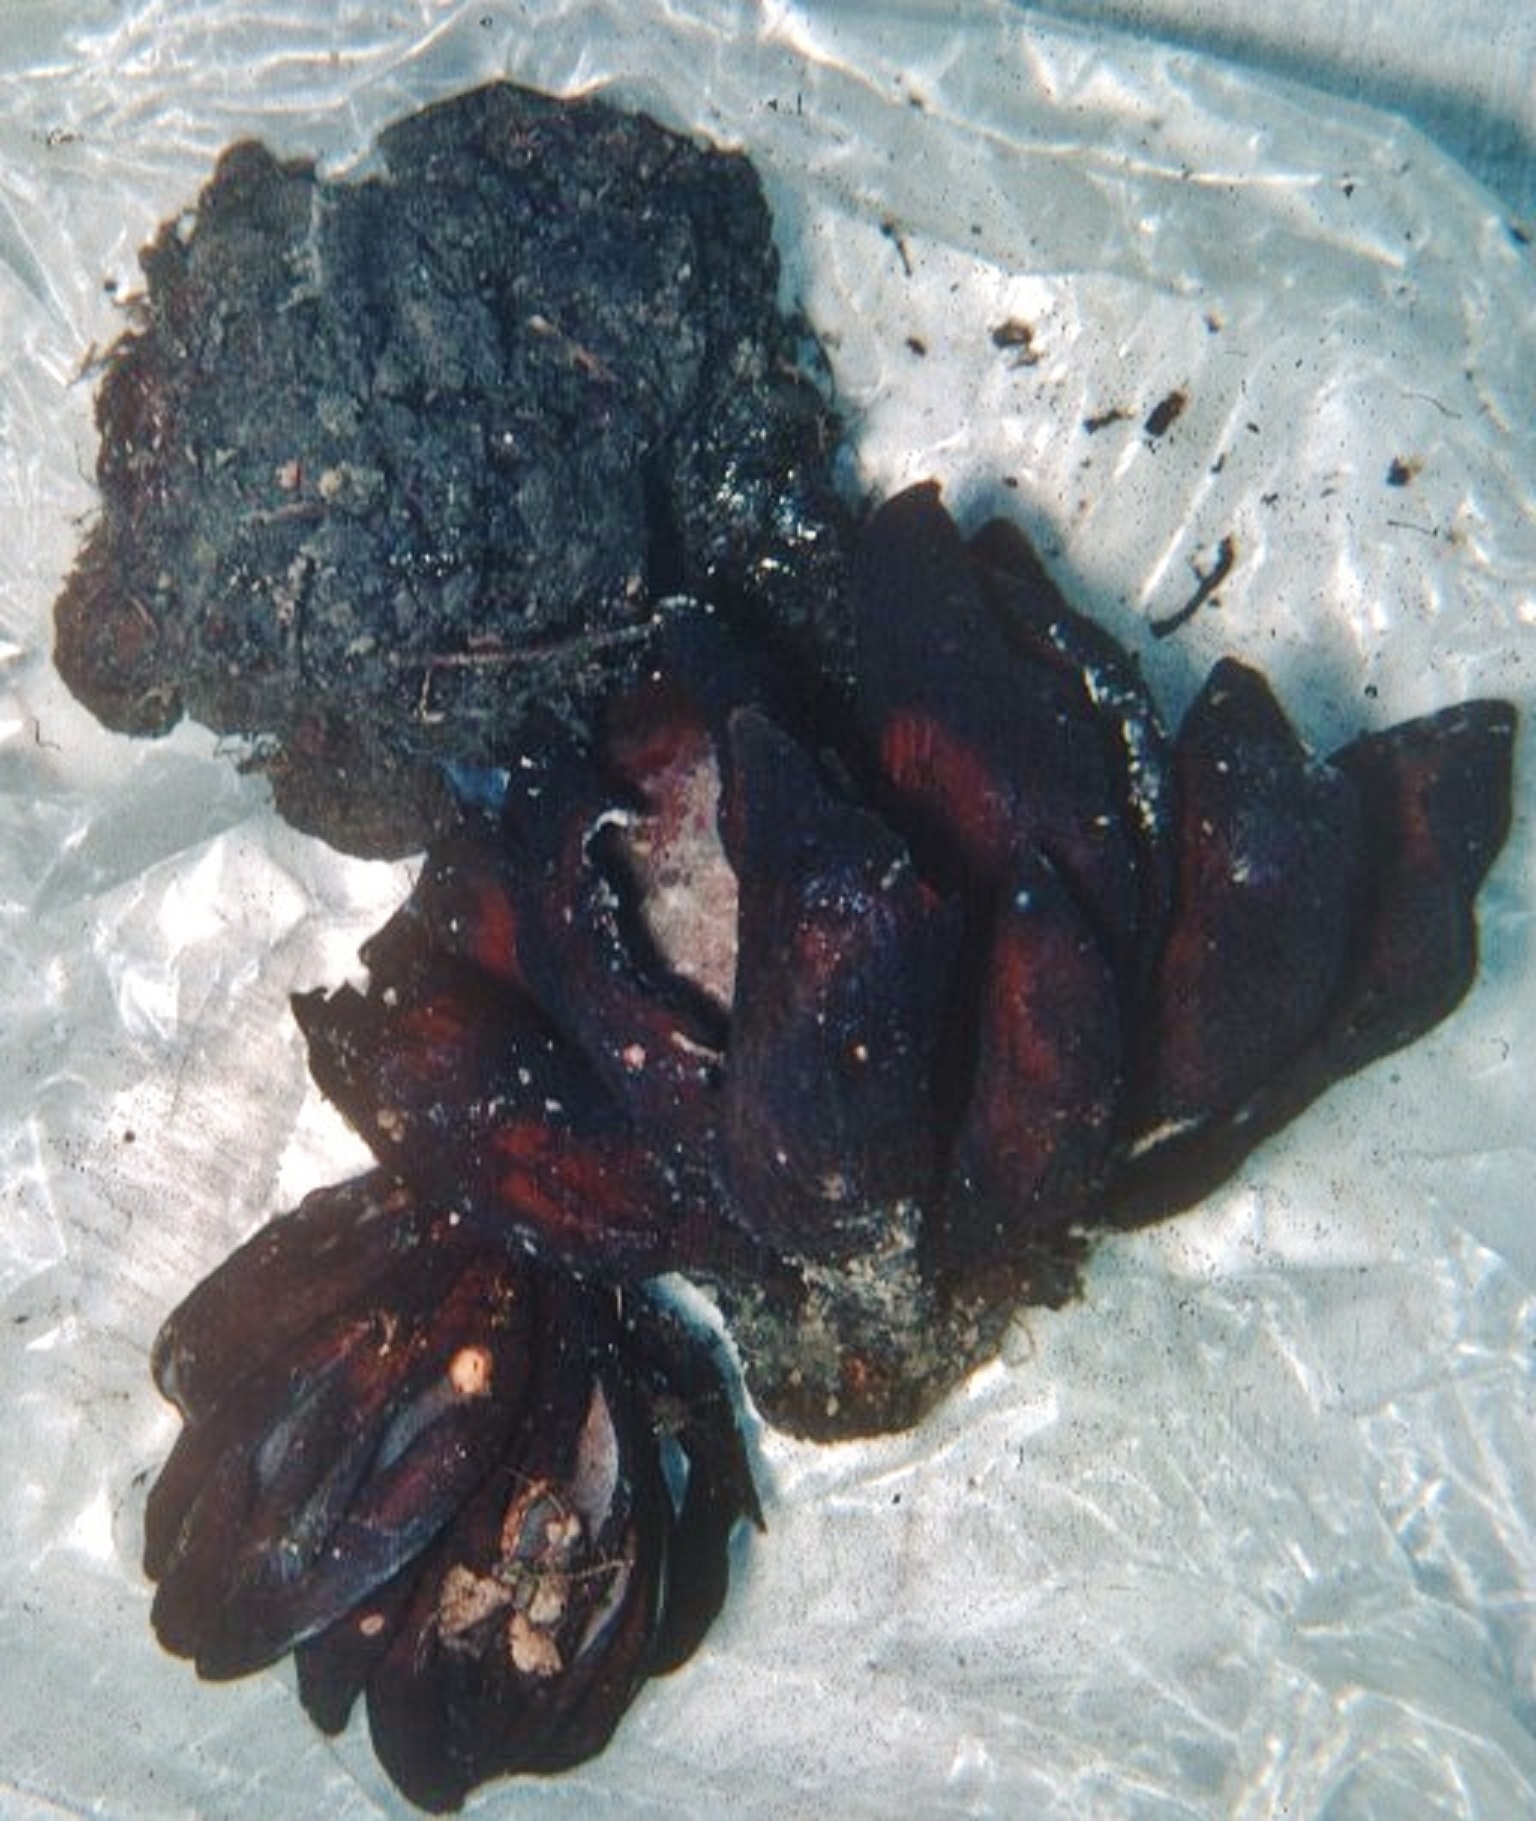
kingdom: Fungi
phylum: Ascomycota
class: Pezizomycetes
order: Pezizales
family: Wynneaceae
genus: Wynnea
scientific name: Wynnea americana
